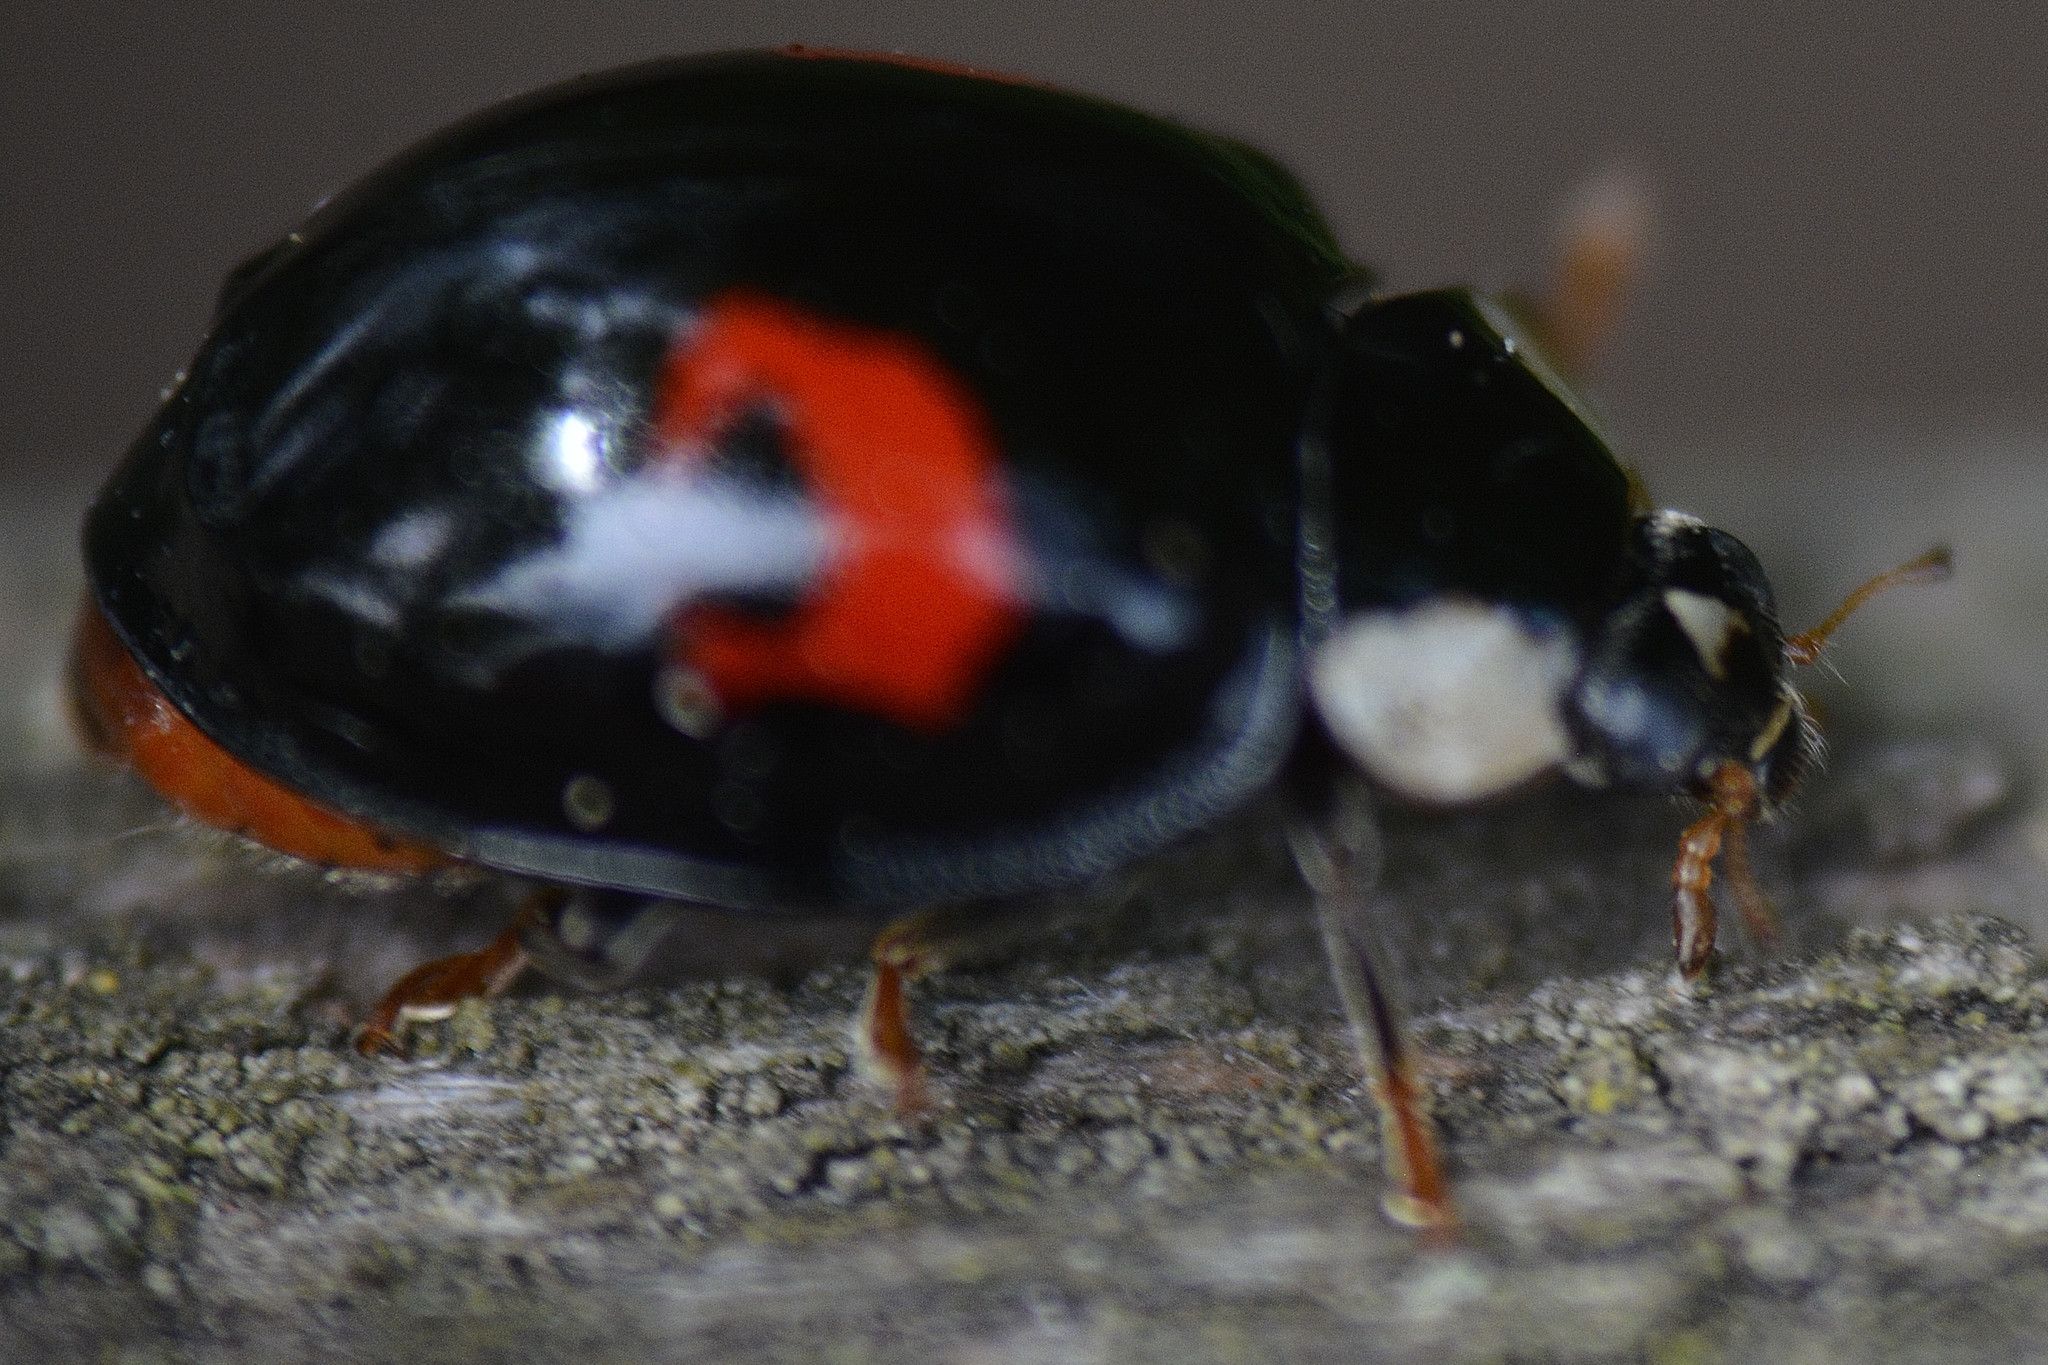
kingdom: Animalia
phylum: Arthropoda
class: Insecta
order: Coleoptera
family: Coccinellidae
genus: Harmonia
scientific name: Harmonia axyridis
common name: Harlequin ladybird
